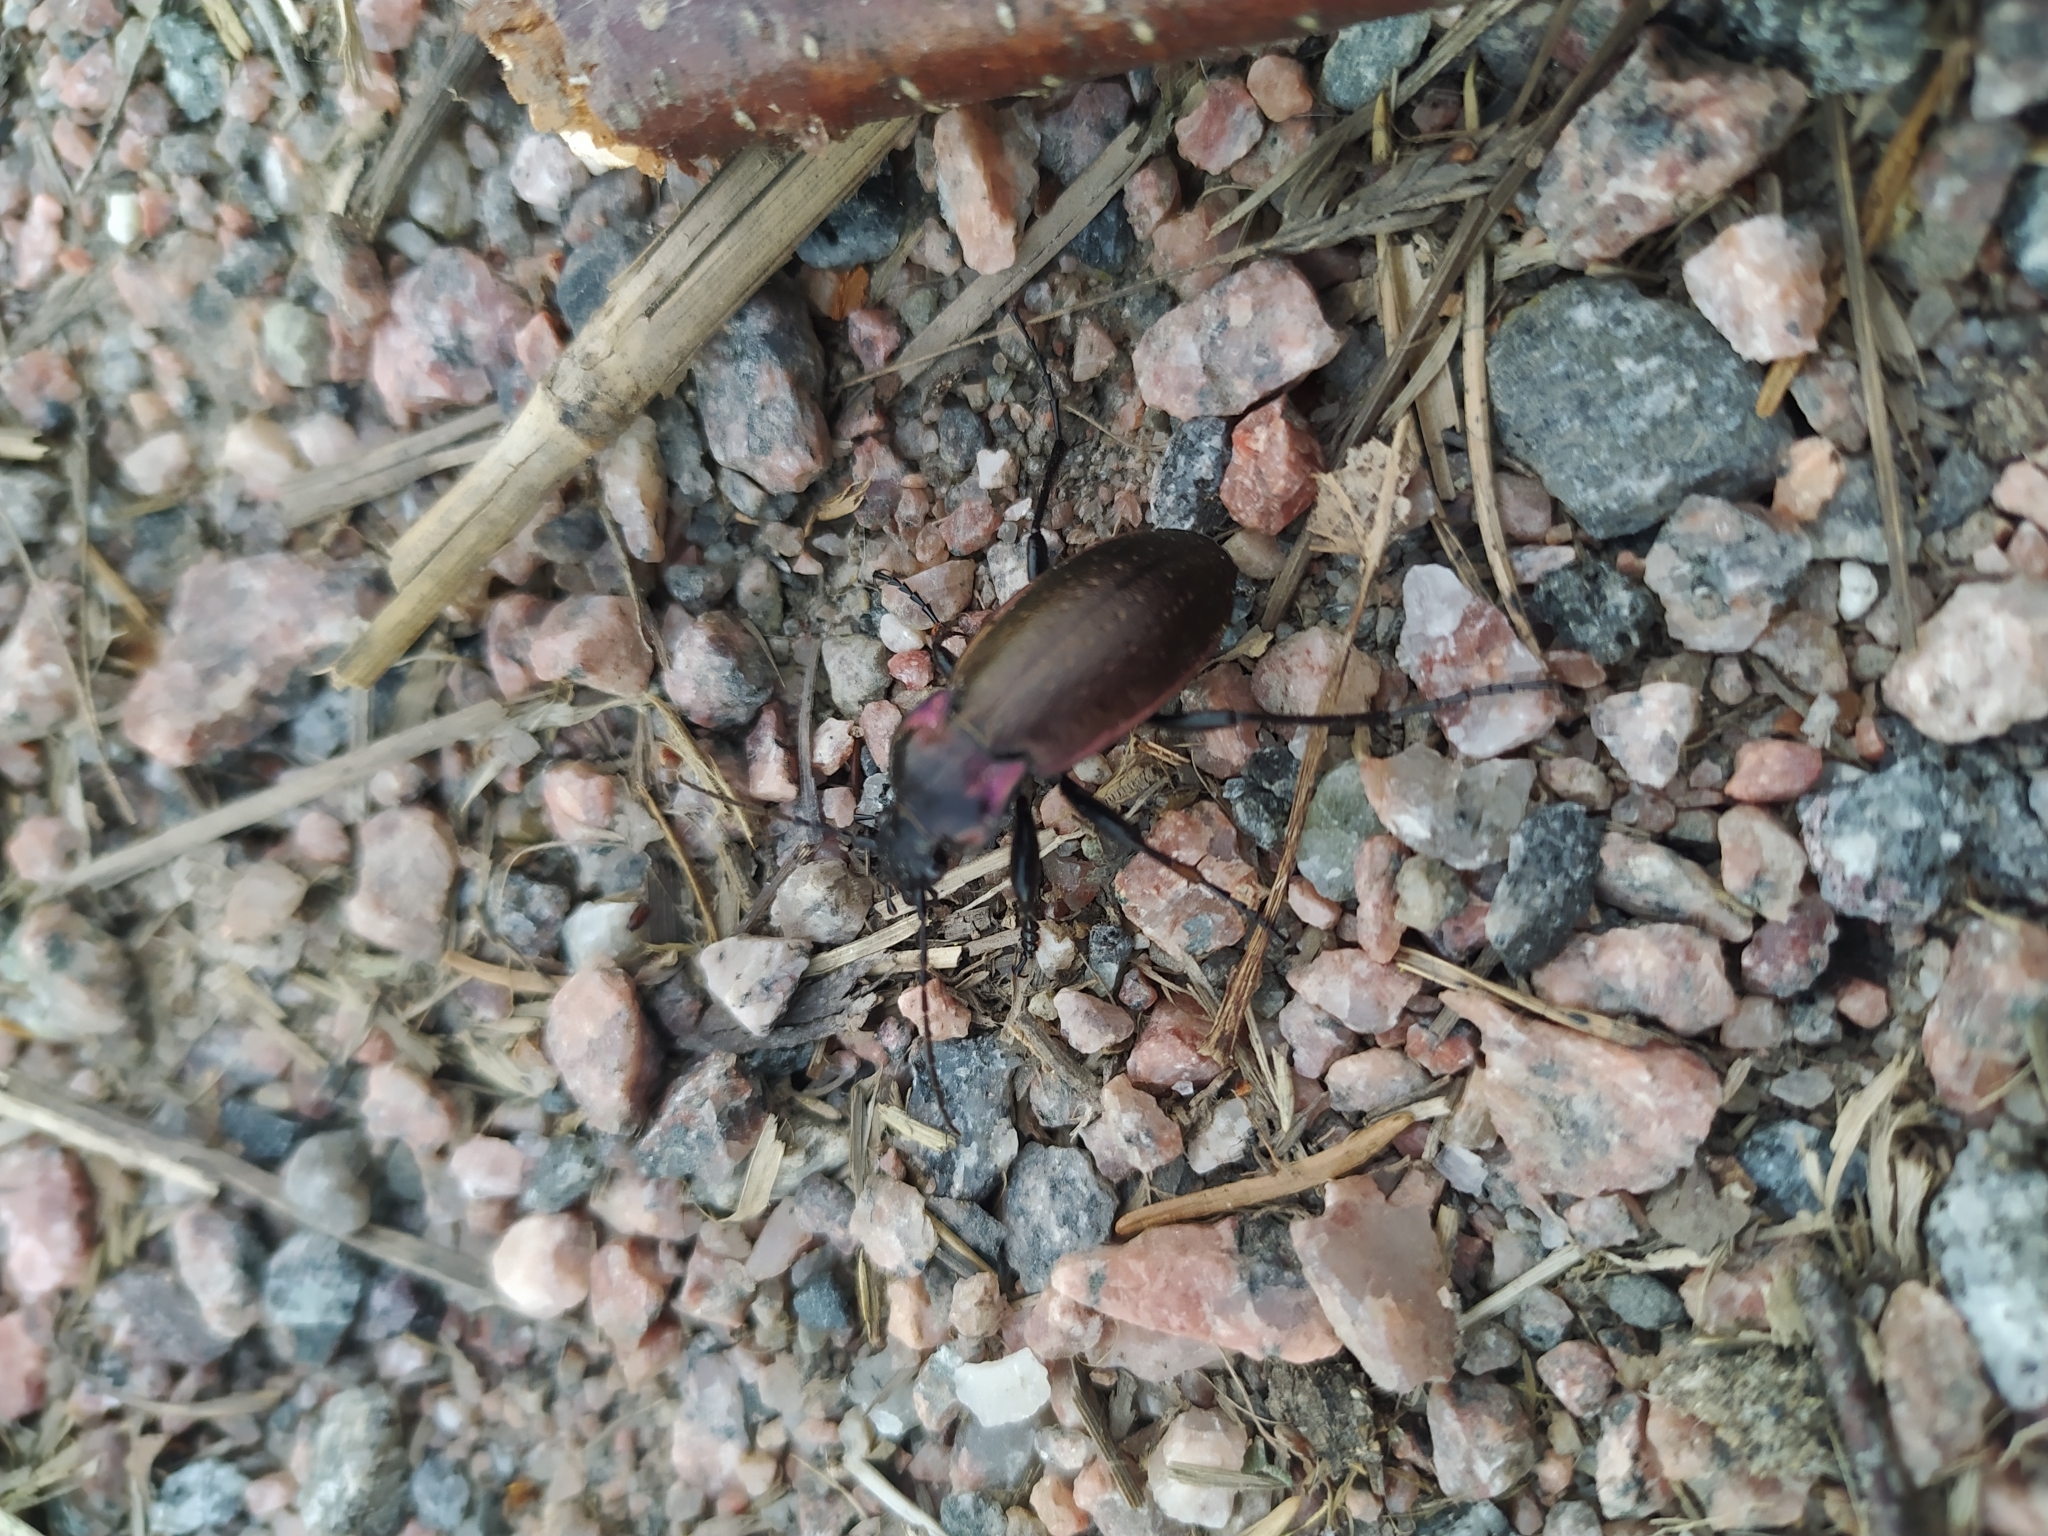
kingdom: Animalia
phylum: Arthropoda
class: Insecta
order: Coleoptera
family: Carabidae
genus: Carabus
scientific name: Carabus nemoralis
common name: European ground beetle
